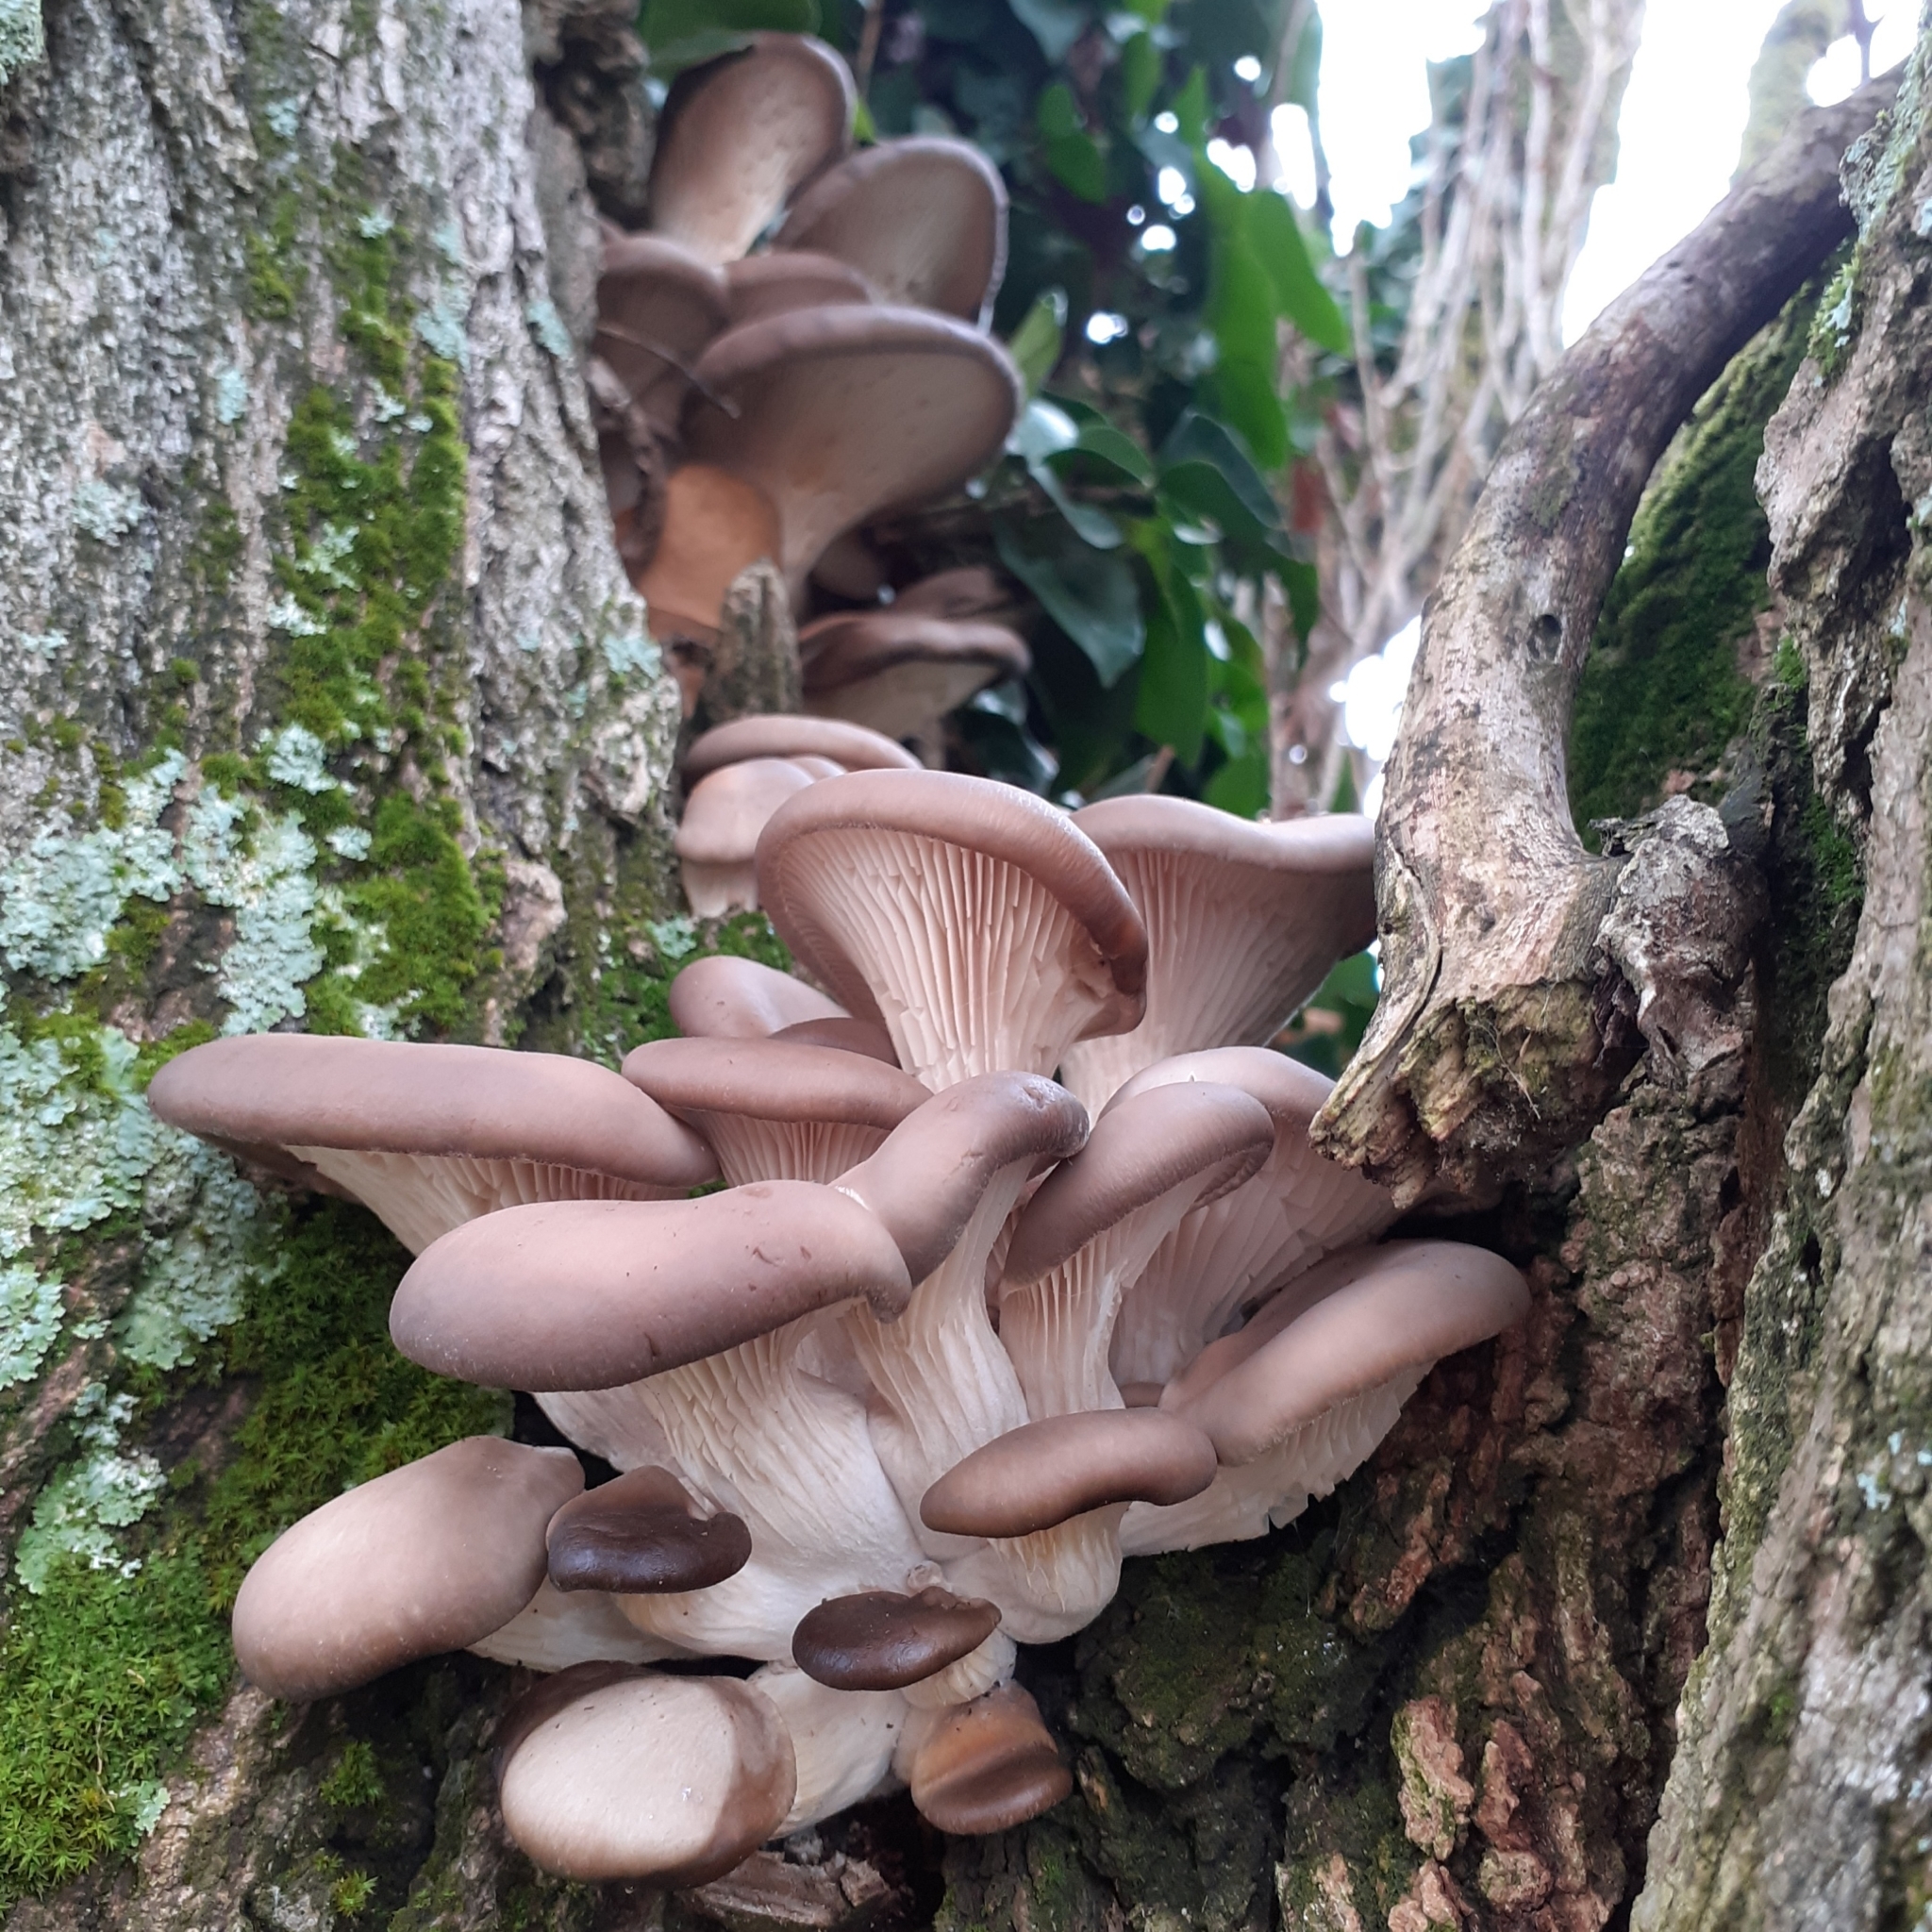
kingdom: Fungi
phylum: Basidiomycota
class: Agaricomycetes
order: Agaricales
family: Pleurotaceae
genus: Pleurotus
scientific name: Pleurotus ostreatus
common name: Oyster mushroom
